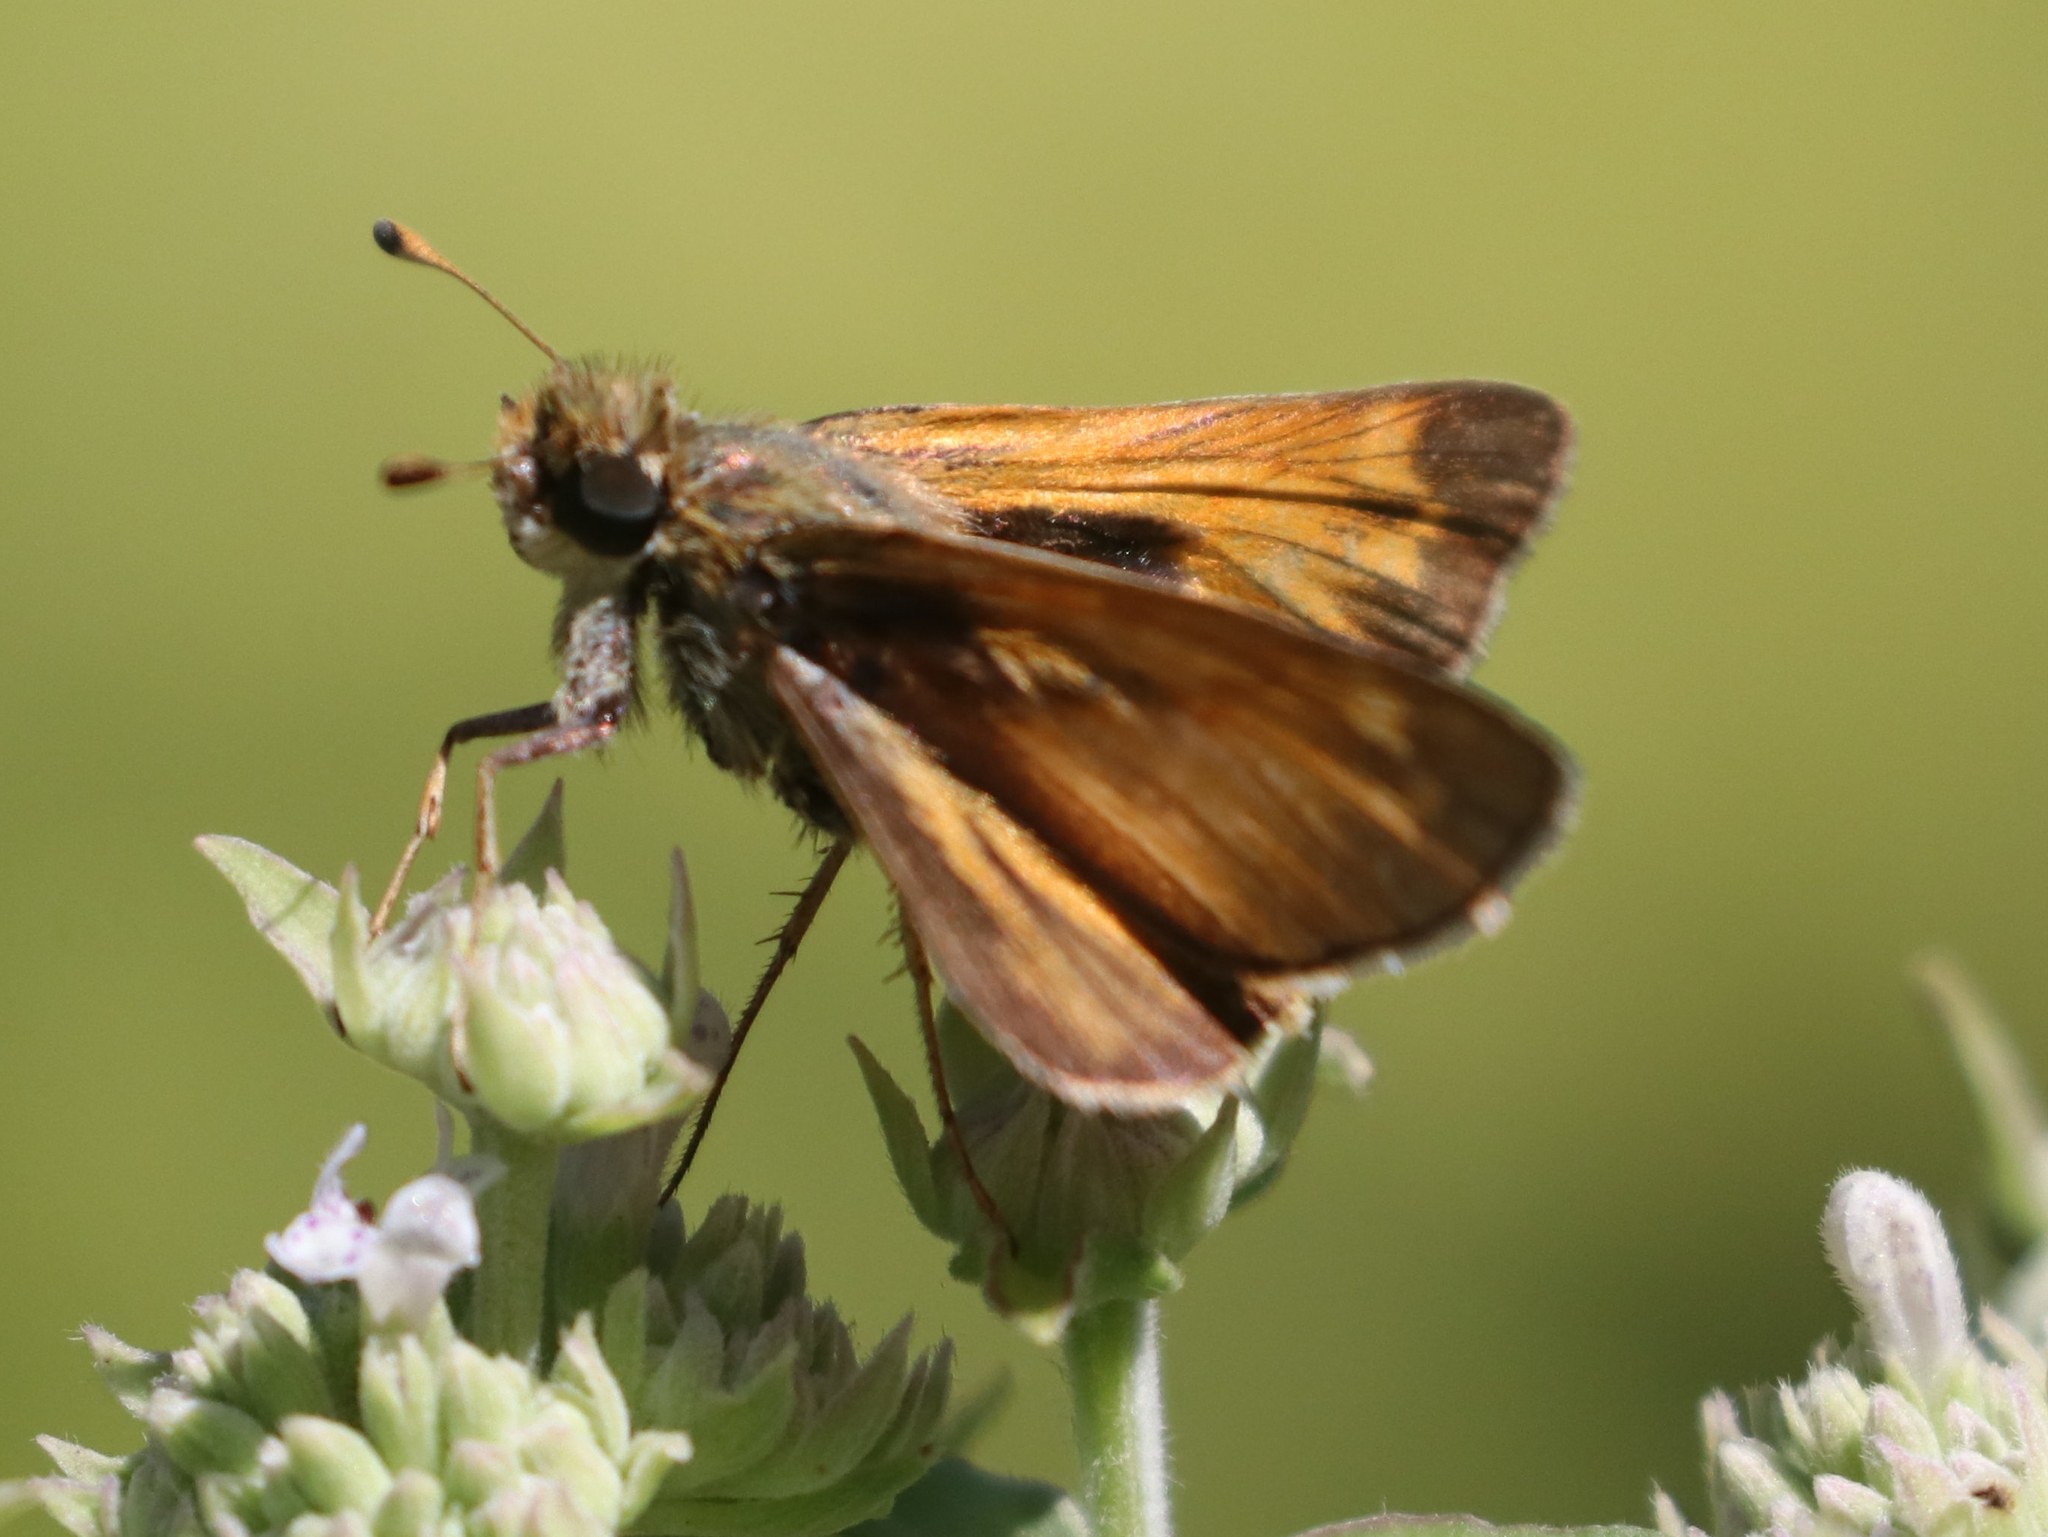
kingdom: Animalia
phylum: Arthropoda
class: Insecta
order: Lepidoptera
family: Hesperiidae
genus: Atalopedes
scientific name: Atalopedes
